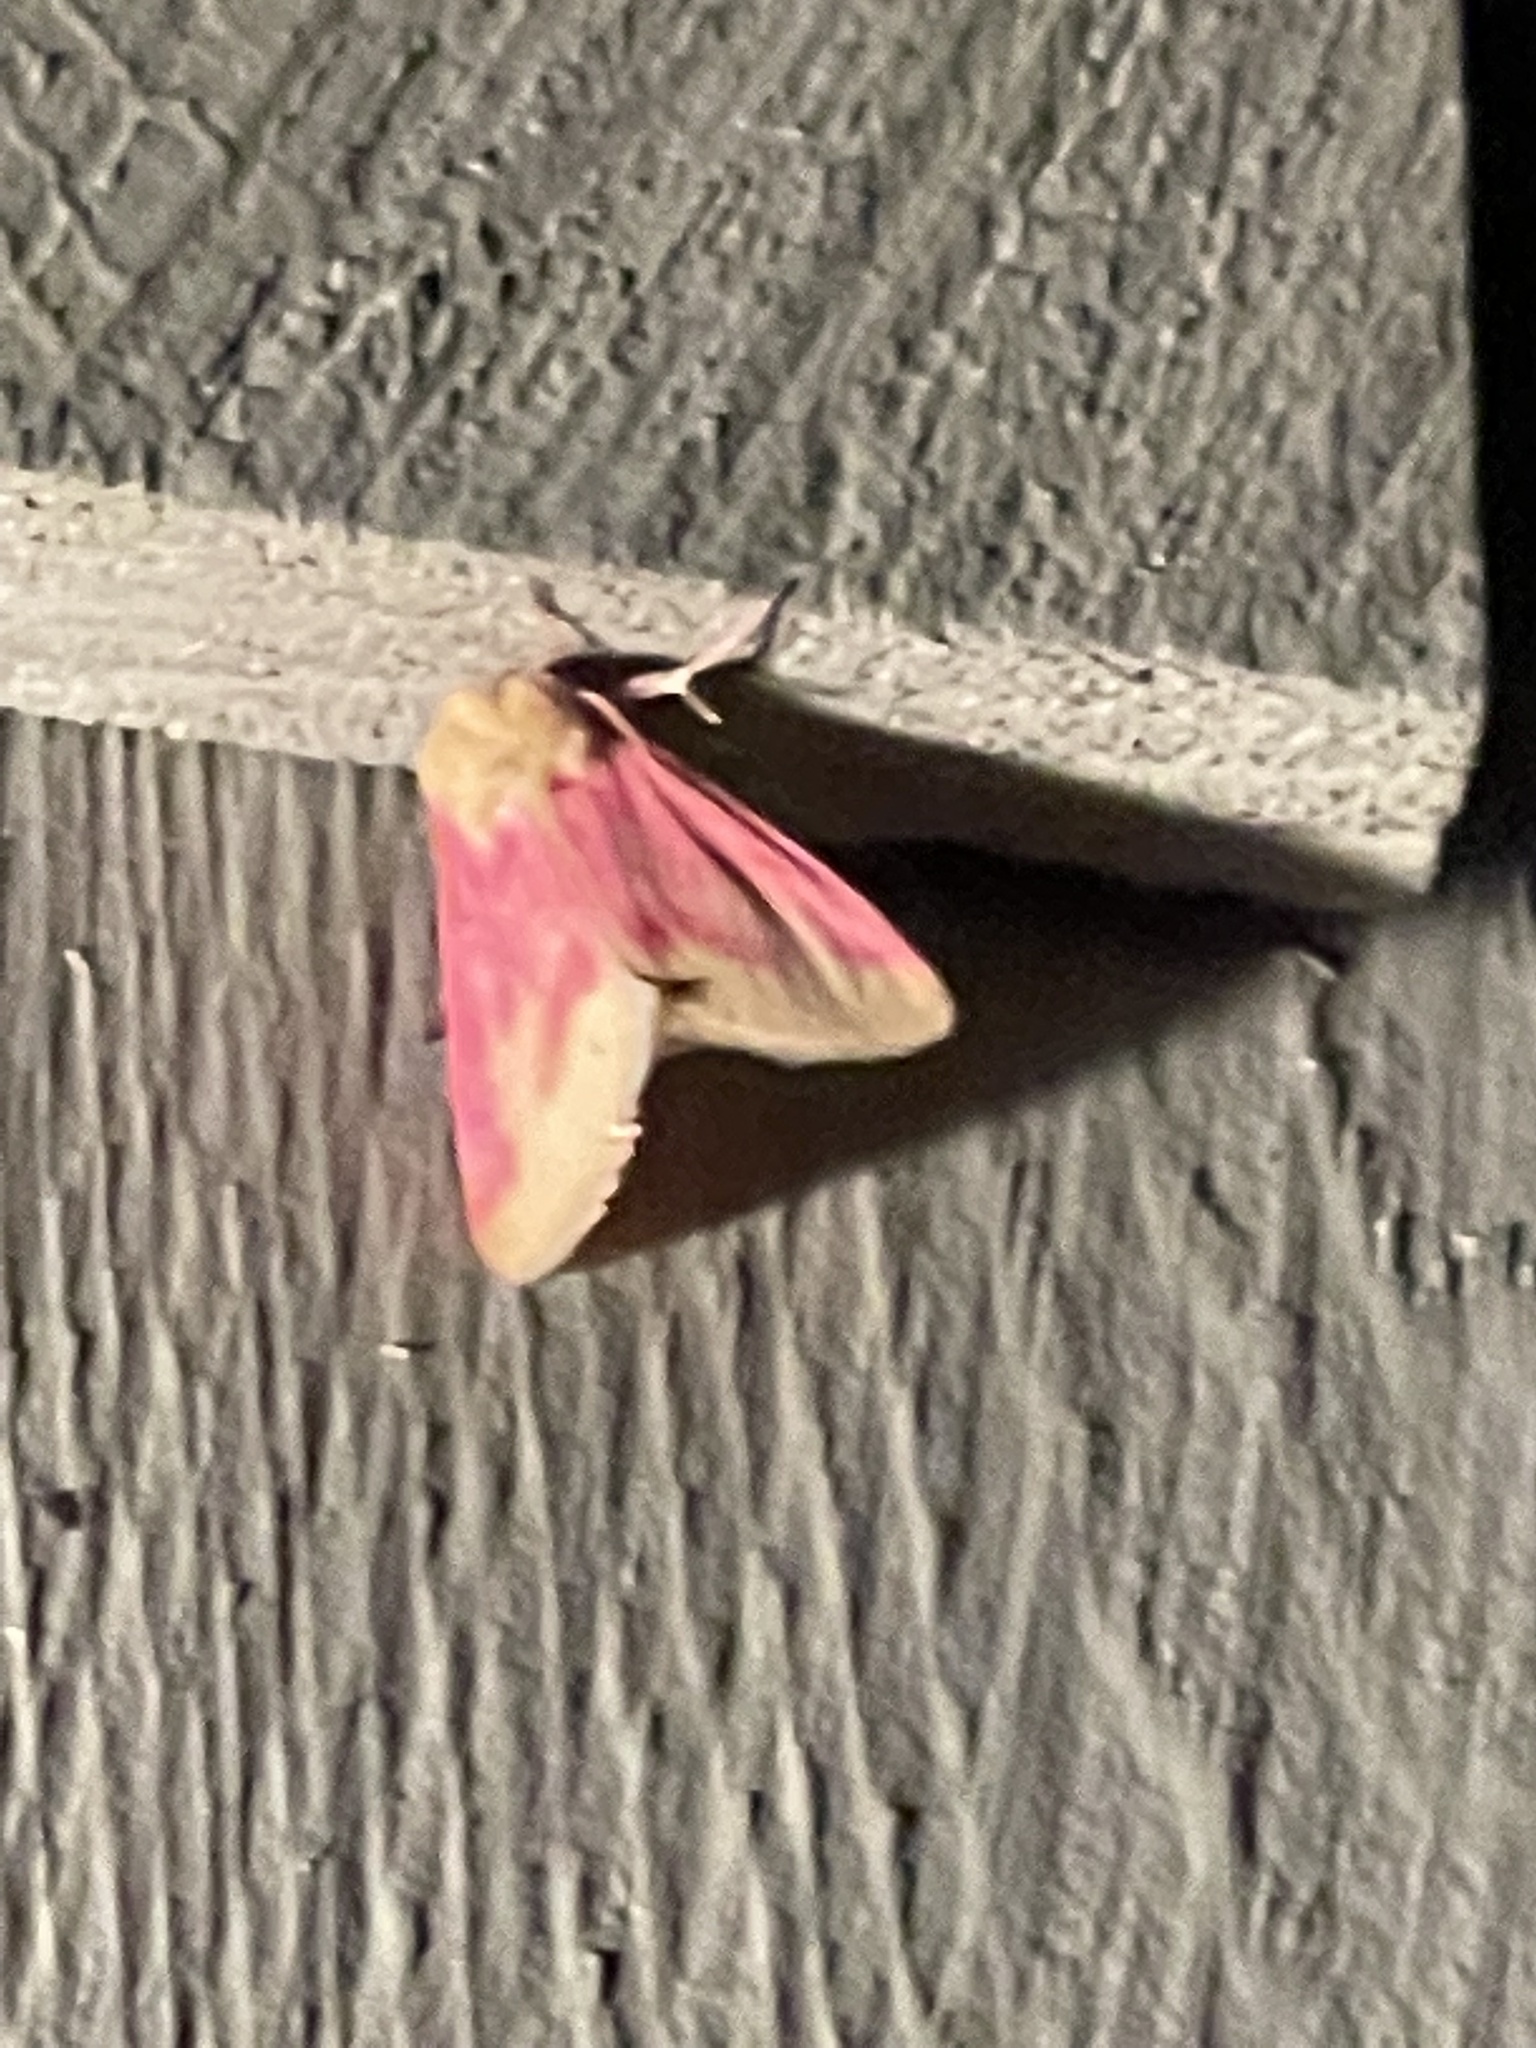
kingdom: Animalia
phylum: Arthropoda
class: Insecta
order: Lepidoptera
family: Noctuidae
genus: Schinia
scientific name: Schinia florida
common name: Primrose moth
